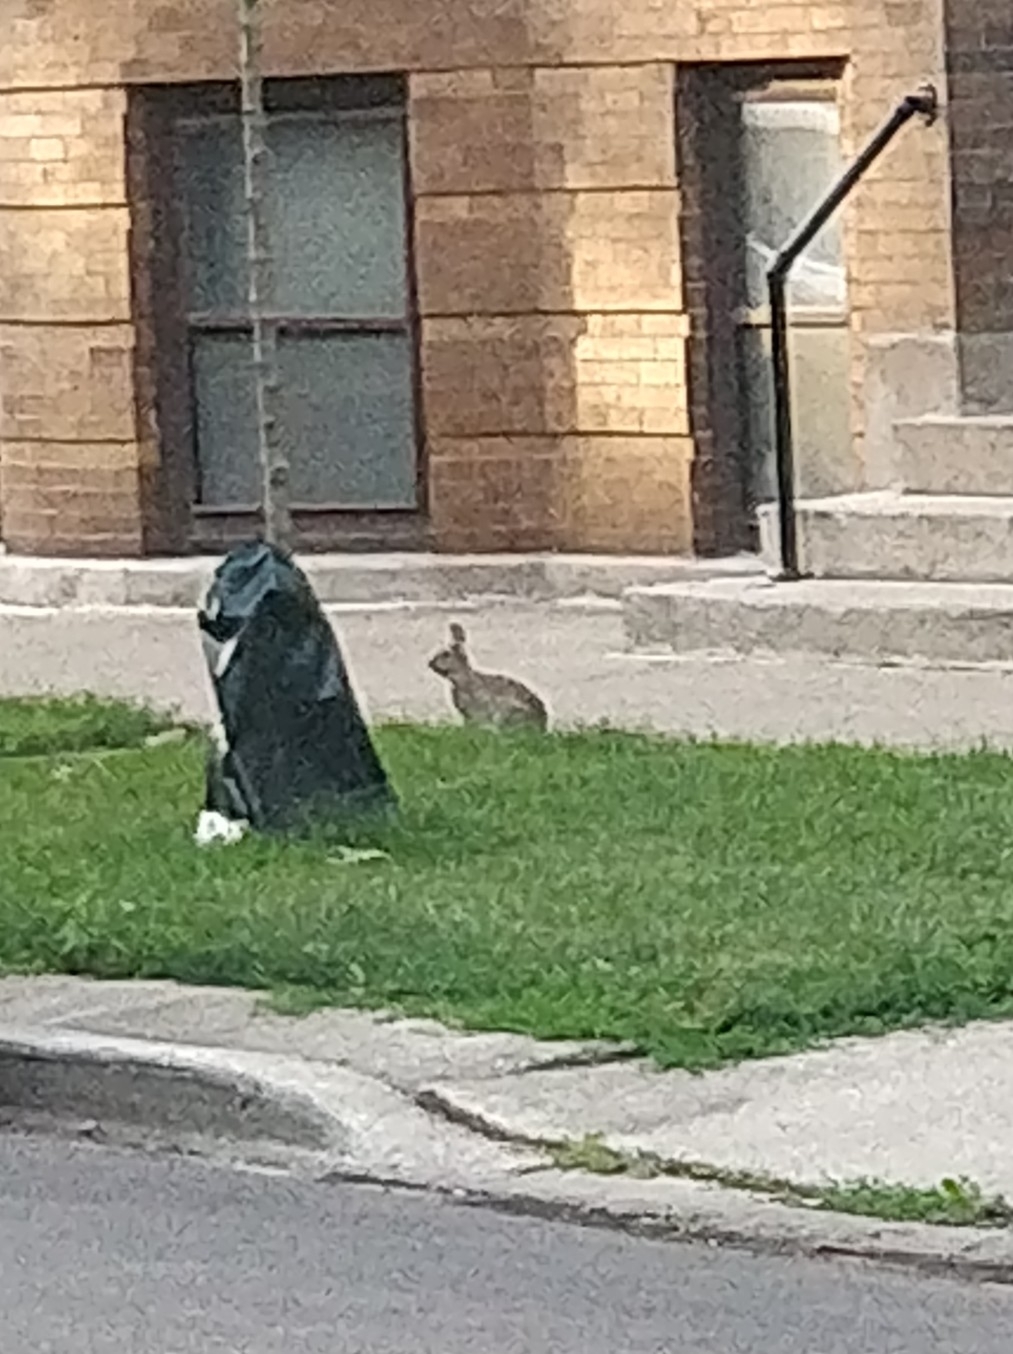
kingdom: Animalia
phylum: Chordata
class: Mammalia
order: Lagomorpha
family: Leporidae
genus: Sylvilagus
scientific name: Sylvilagus floridanus
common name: Eastern cottontail
